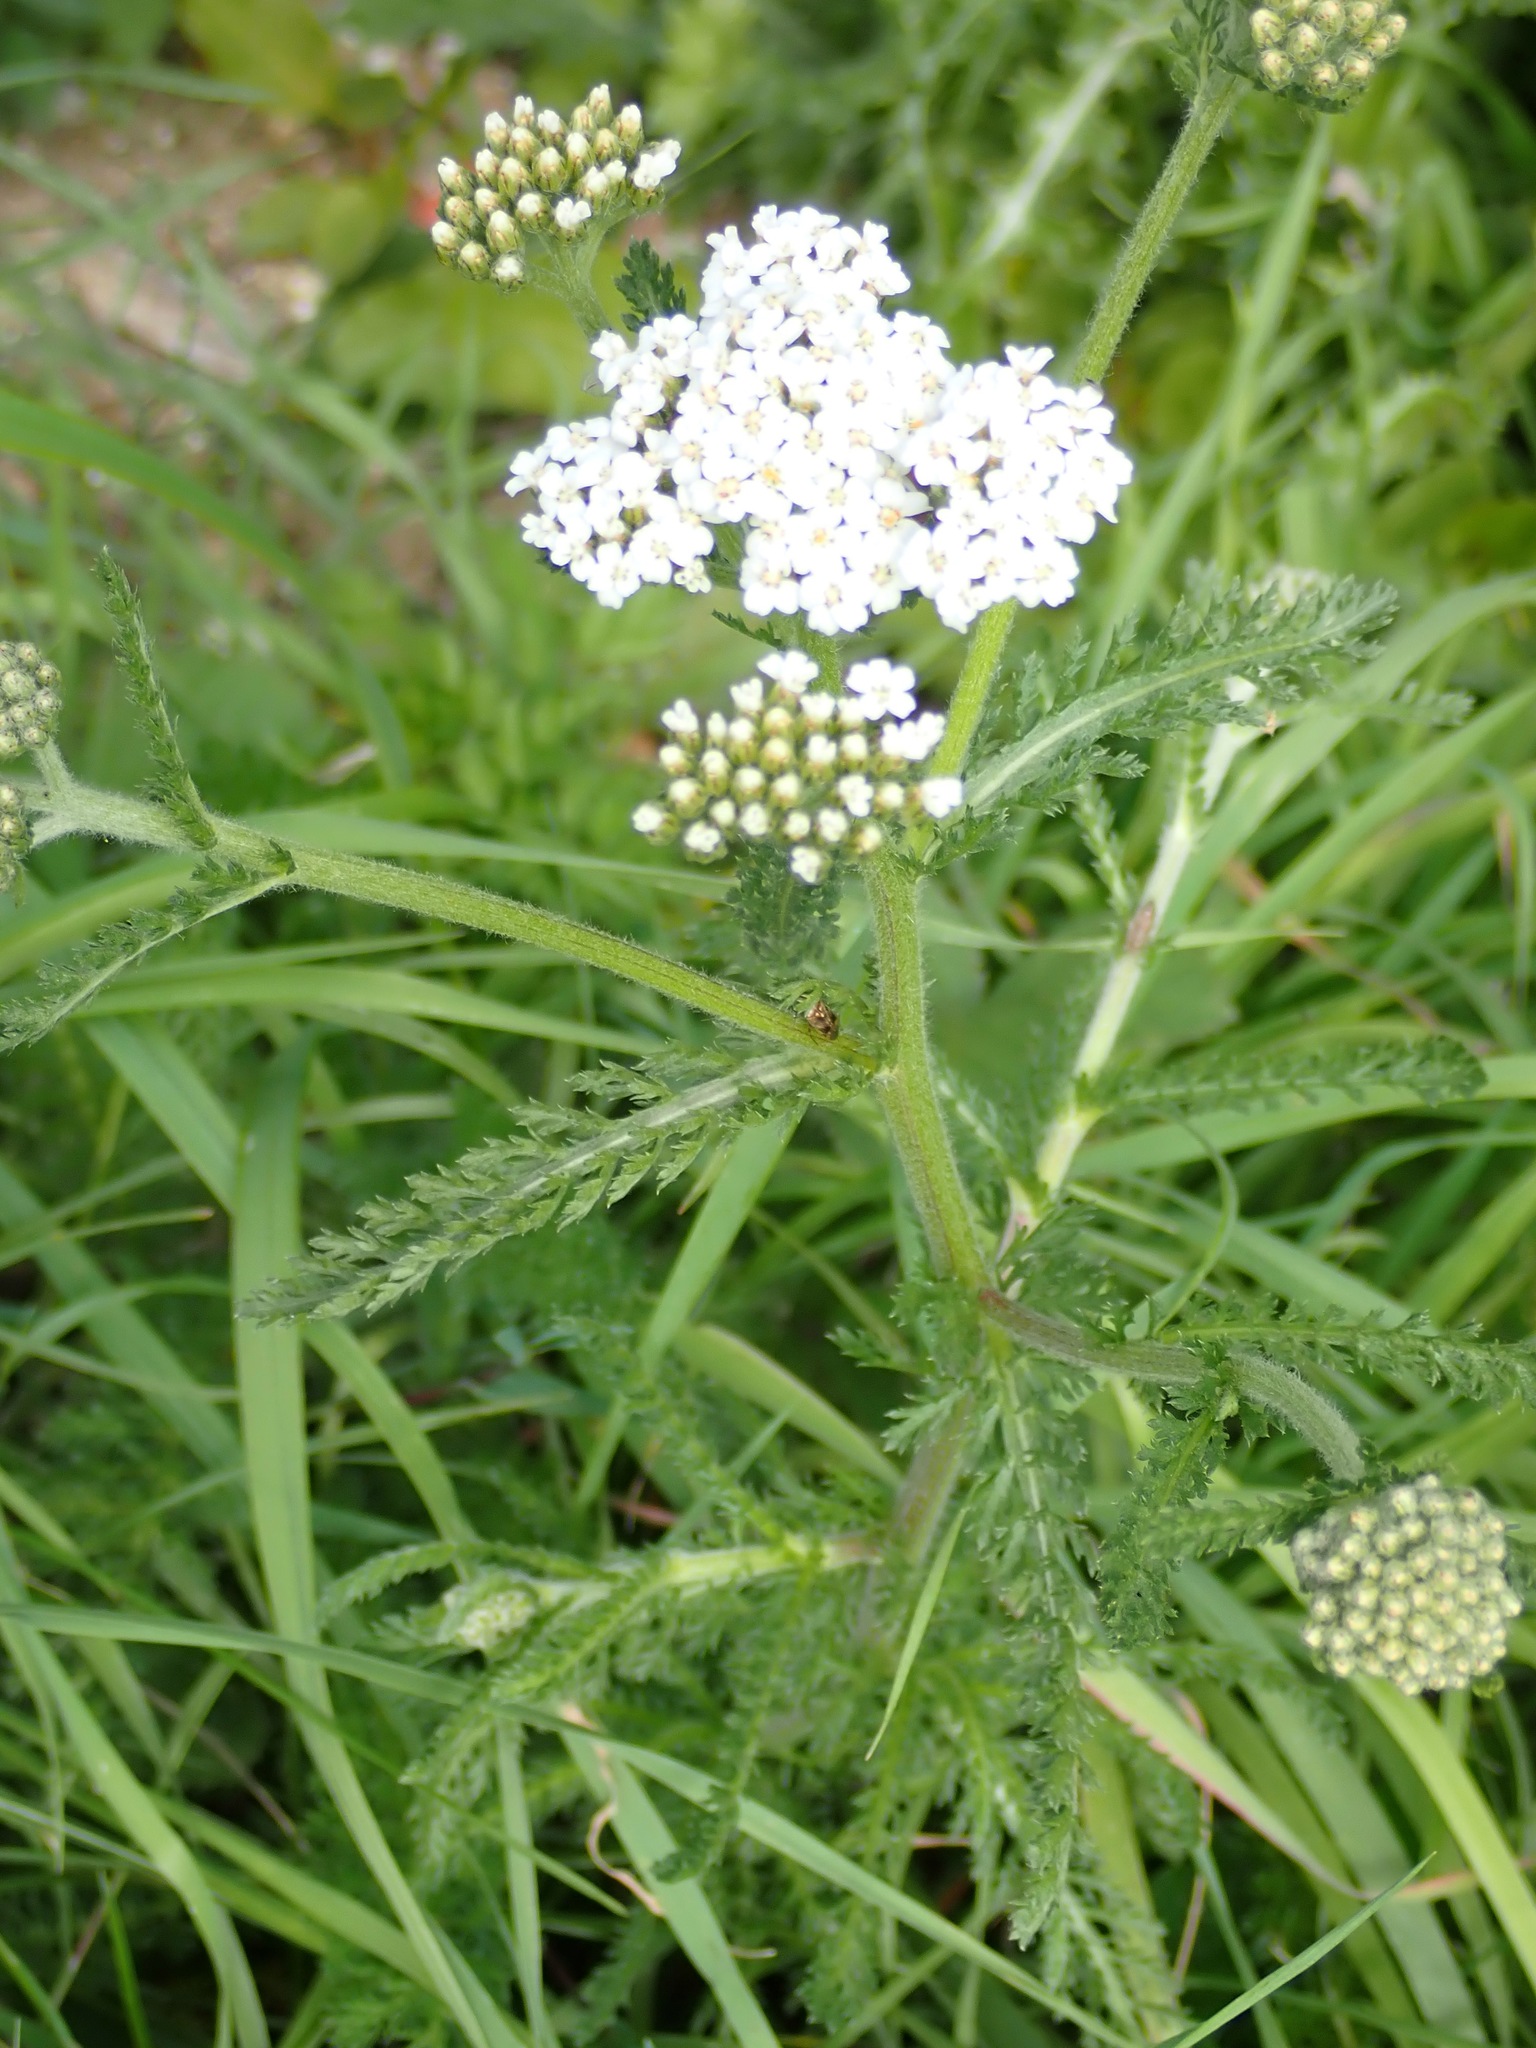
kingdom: Plantae
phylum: Tracheophyta
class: Magnoliopsida
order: Asterales
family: Asteraceae
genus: Achillea
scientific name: Achillea millefolium
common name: Yarrow
